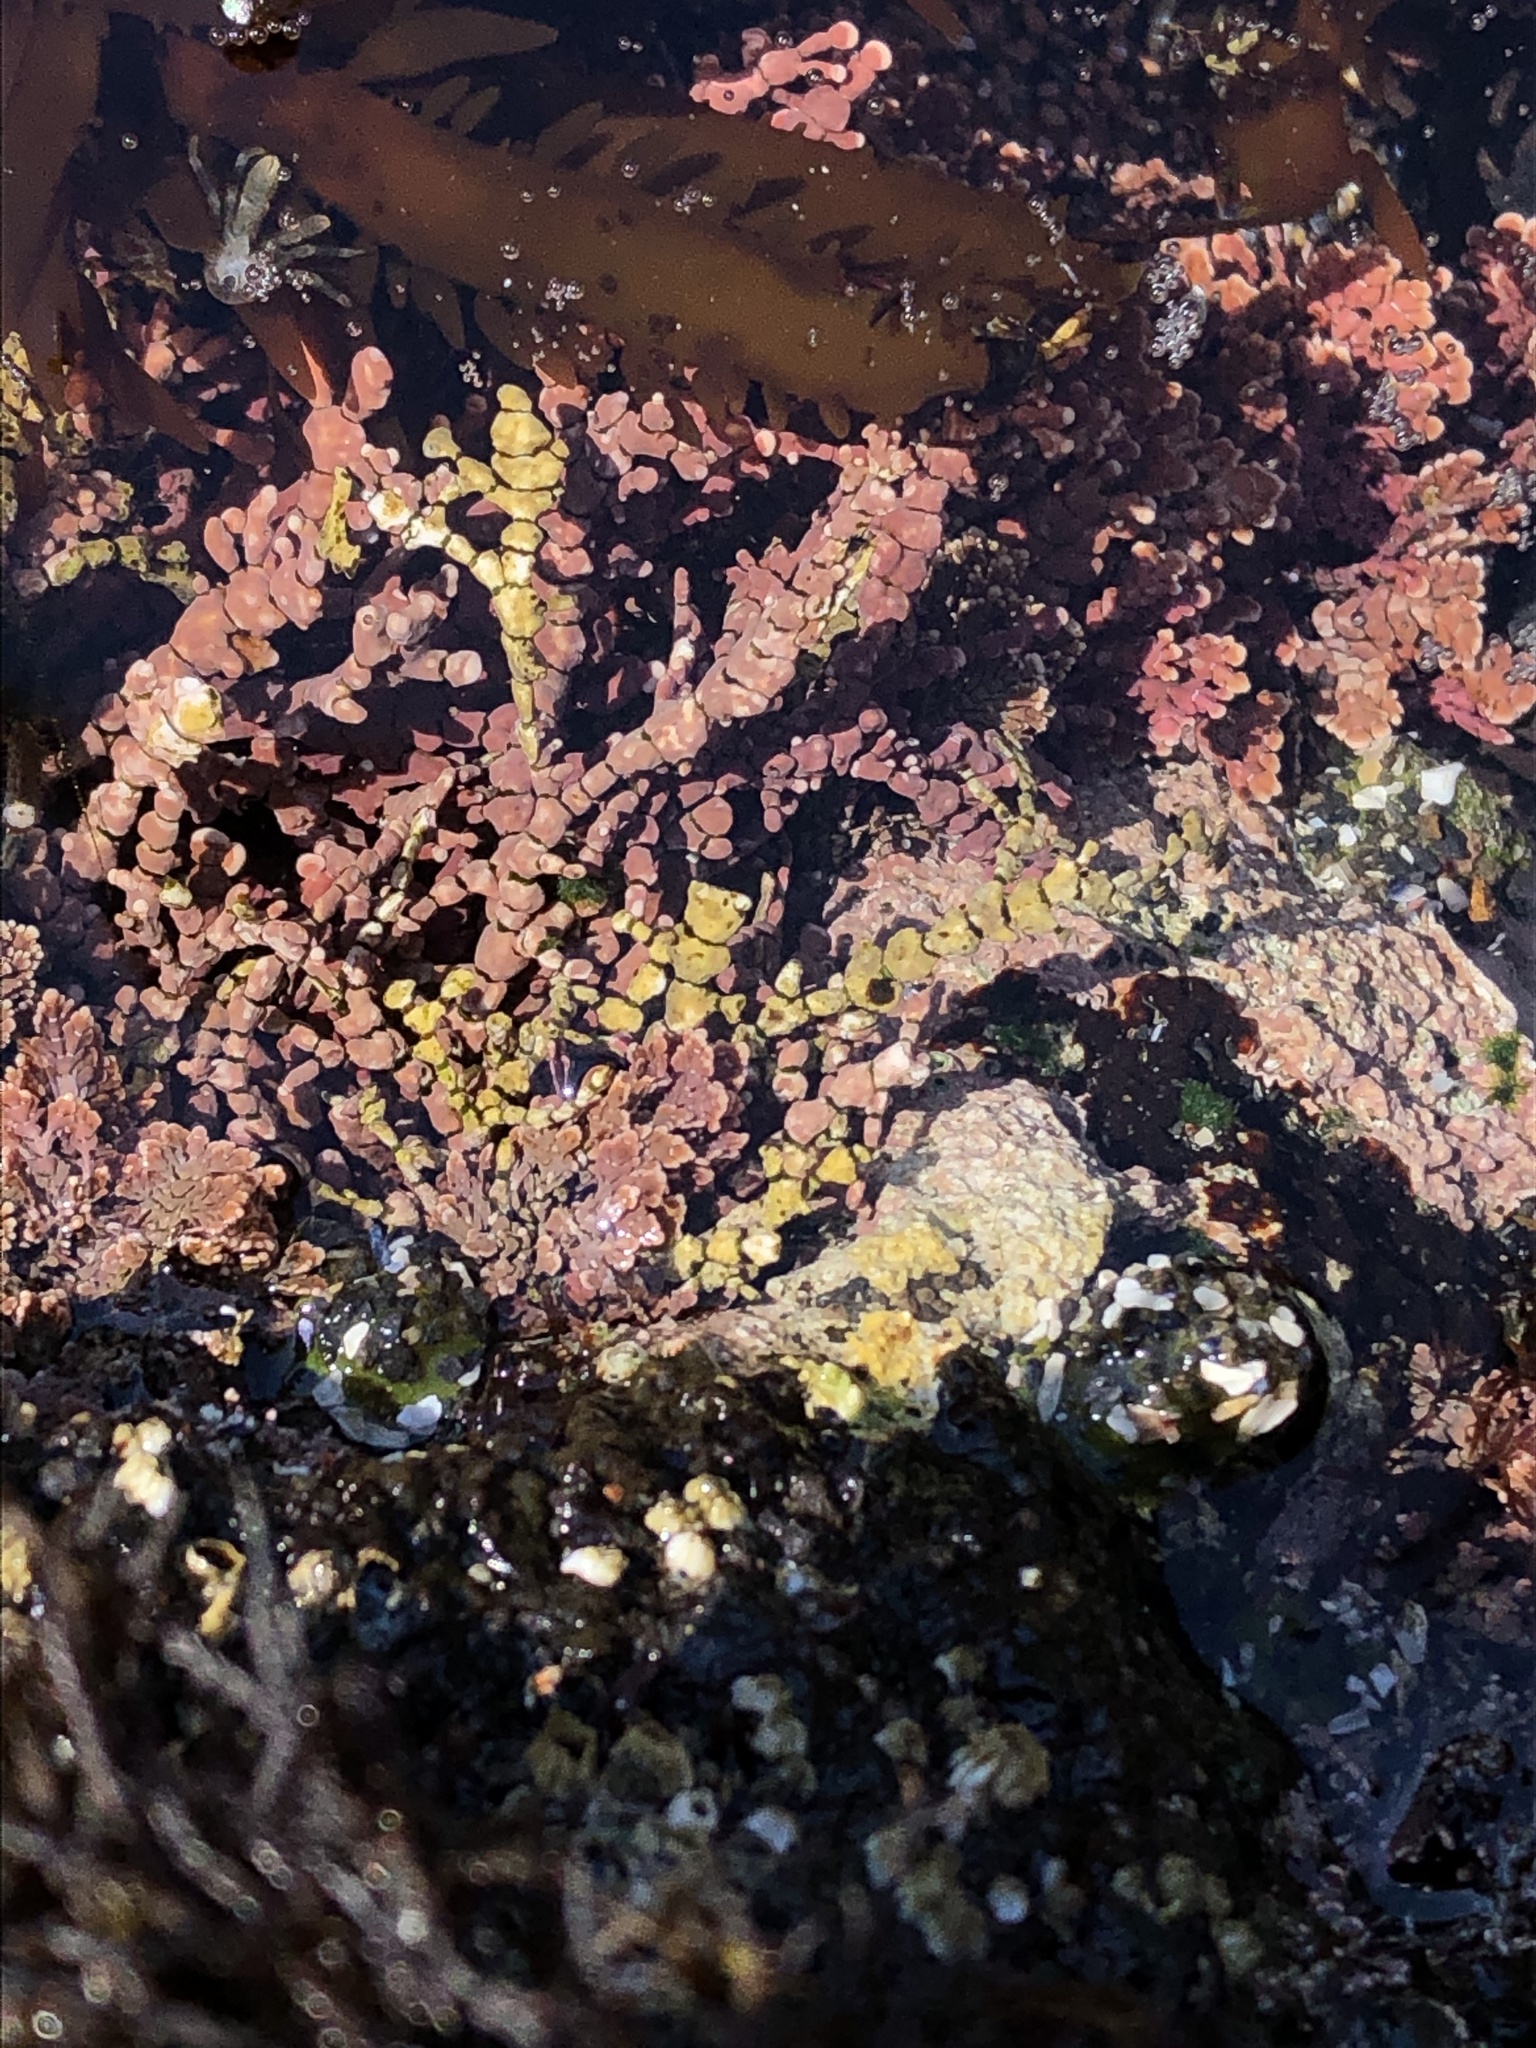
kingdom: Plantae
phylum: Rhodophyta
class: Florideophyceae
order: Corallinales
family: Corallinaceae
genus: Calliarthron
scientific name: Calliarthron tuberculosum
